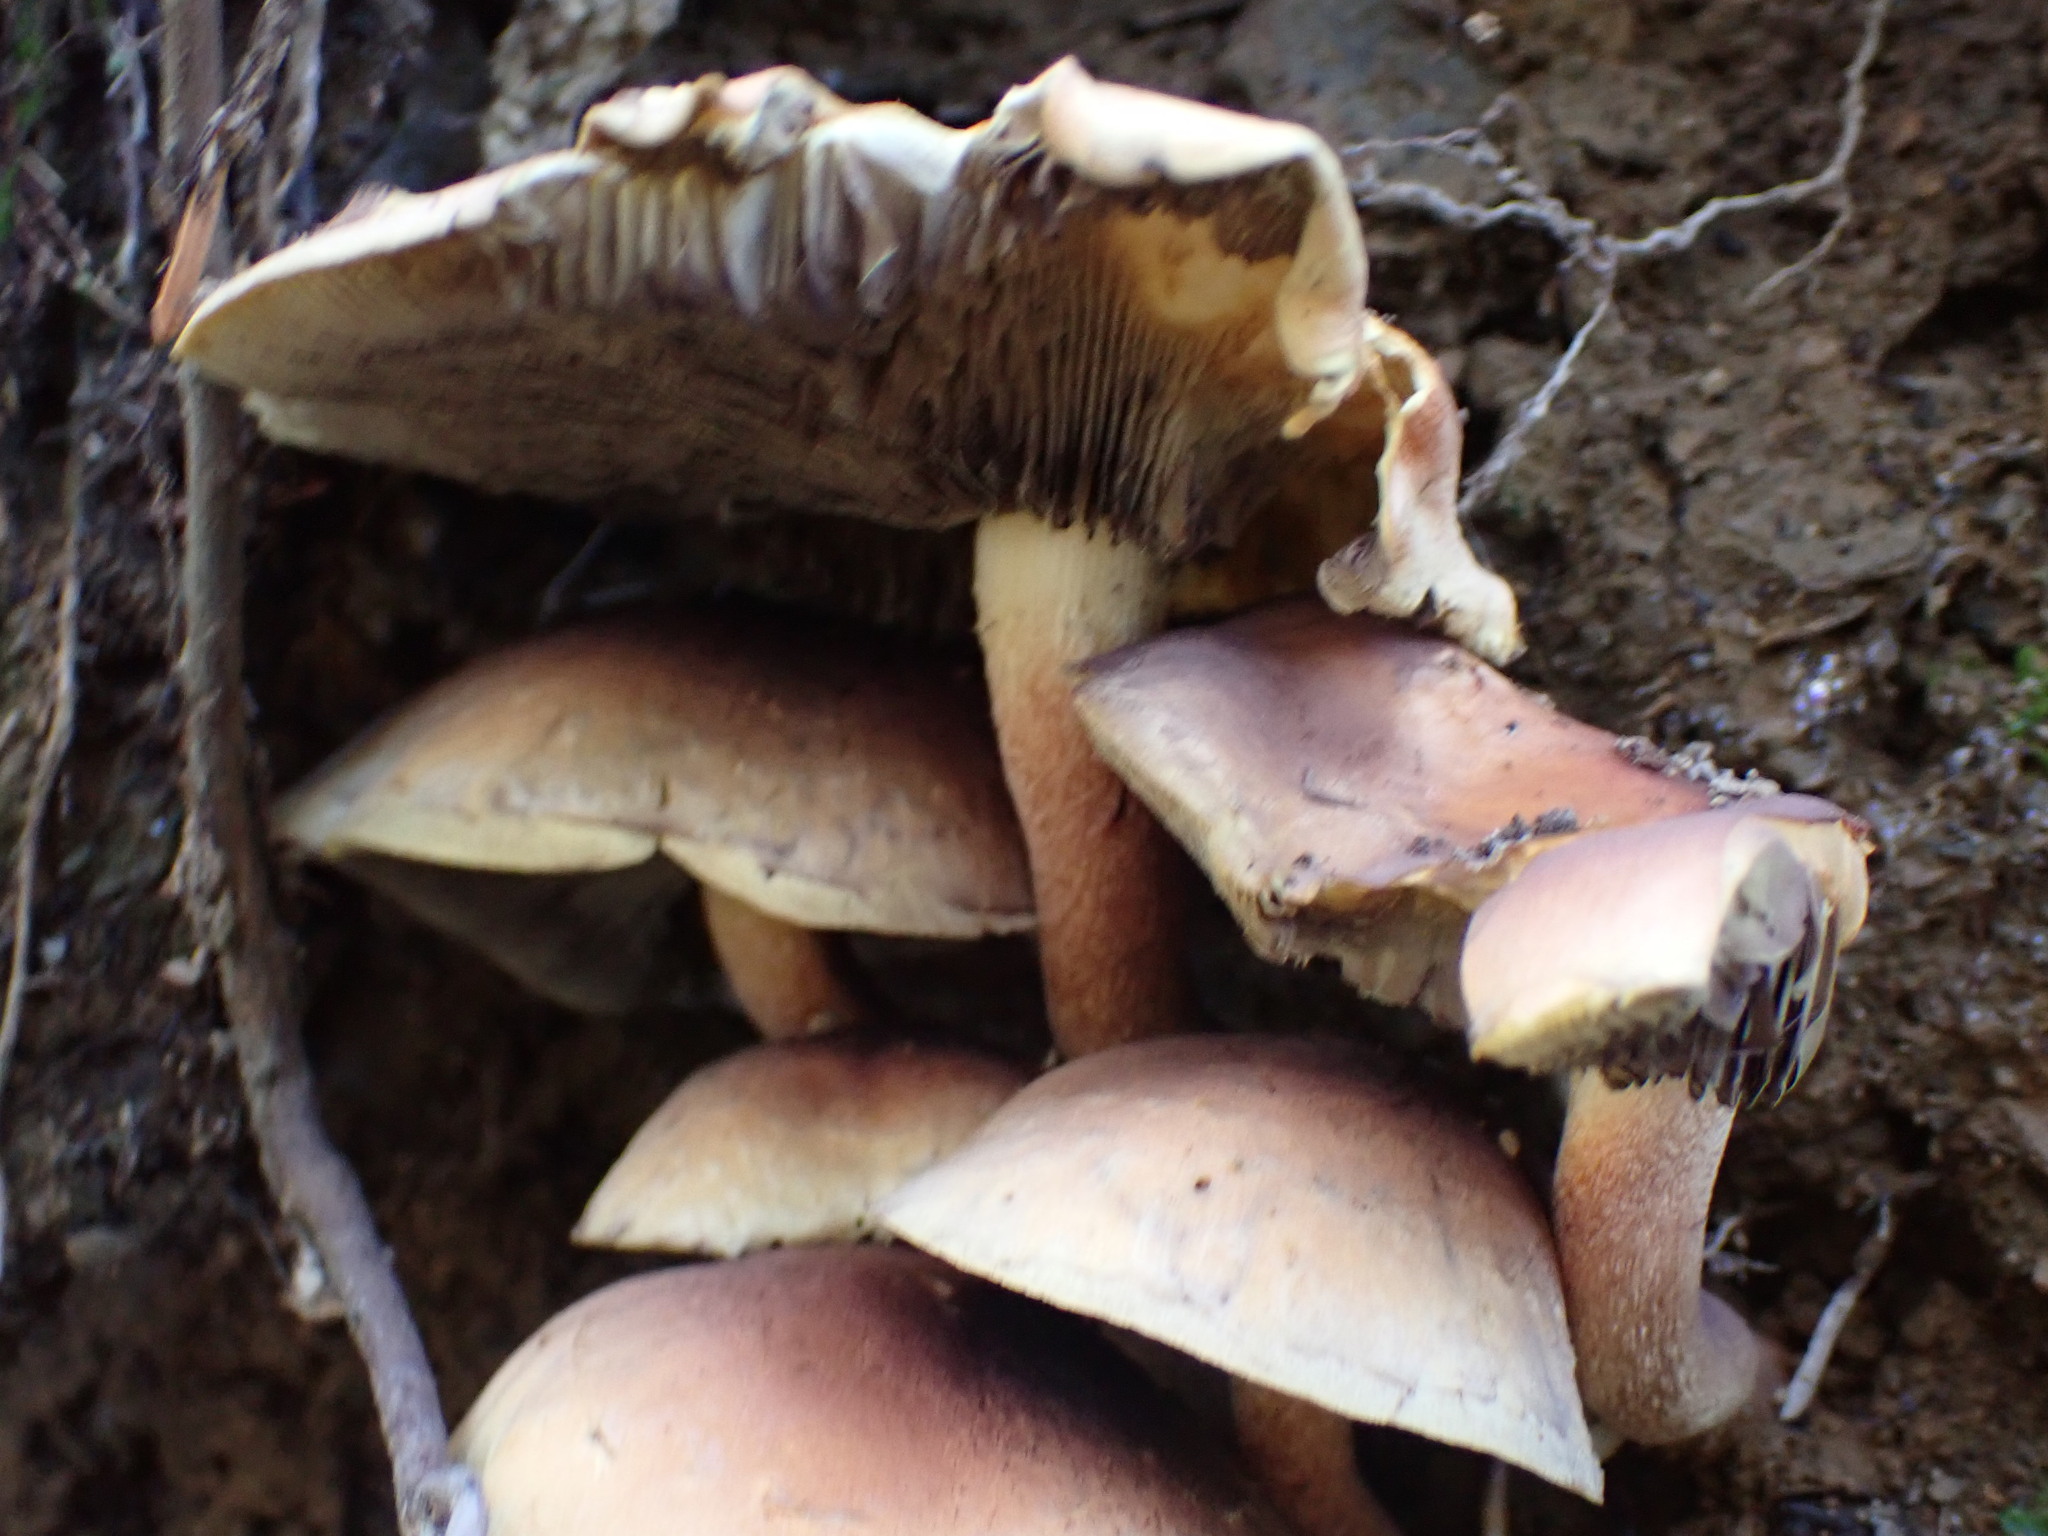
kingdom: Fungi
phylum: Basidiomycota
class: Agaricomycetes
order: Agaricales
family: Strophariaceae
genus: Hypholoma
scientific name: Hypholoma lateritium
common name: Brick caps
